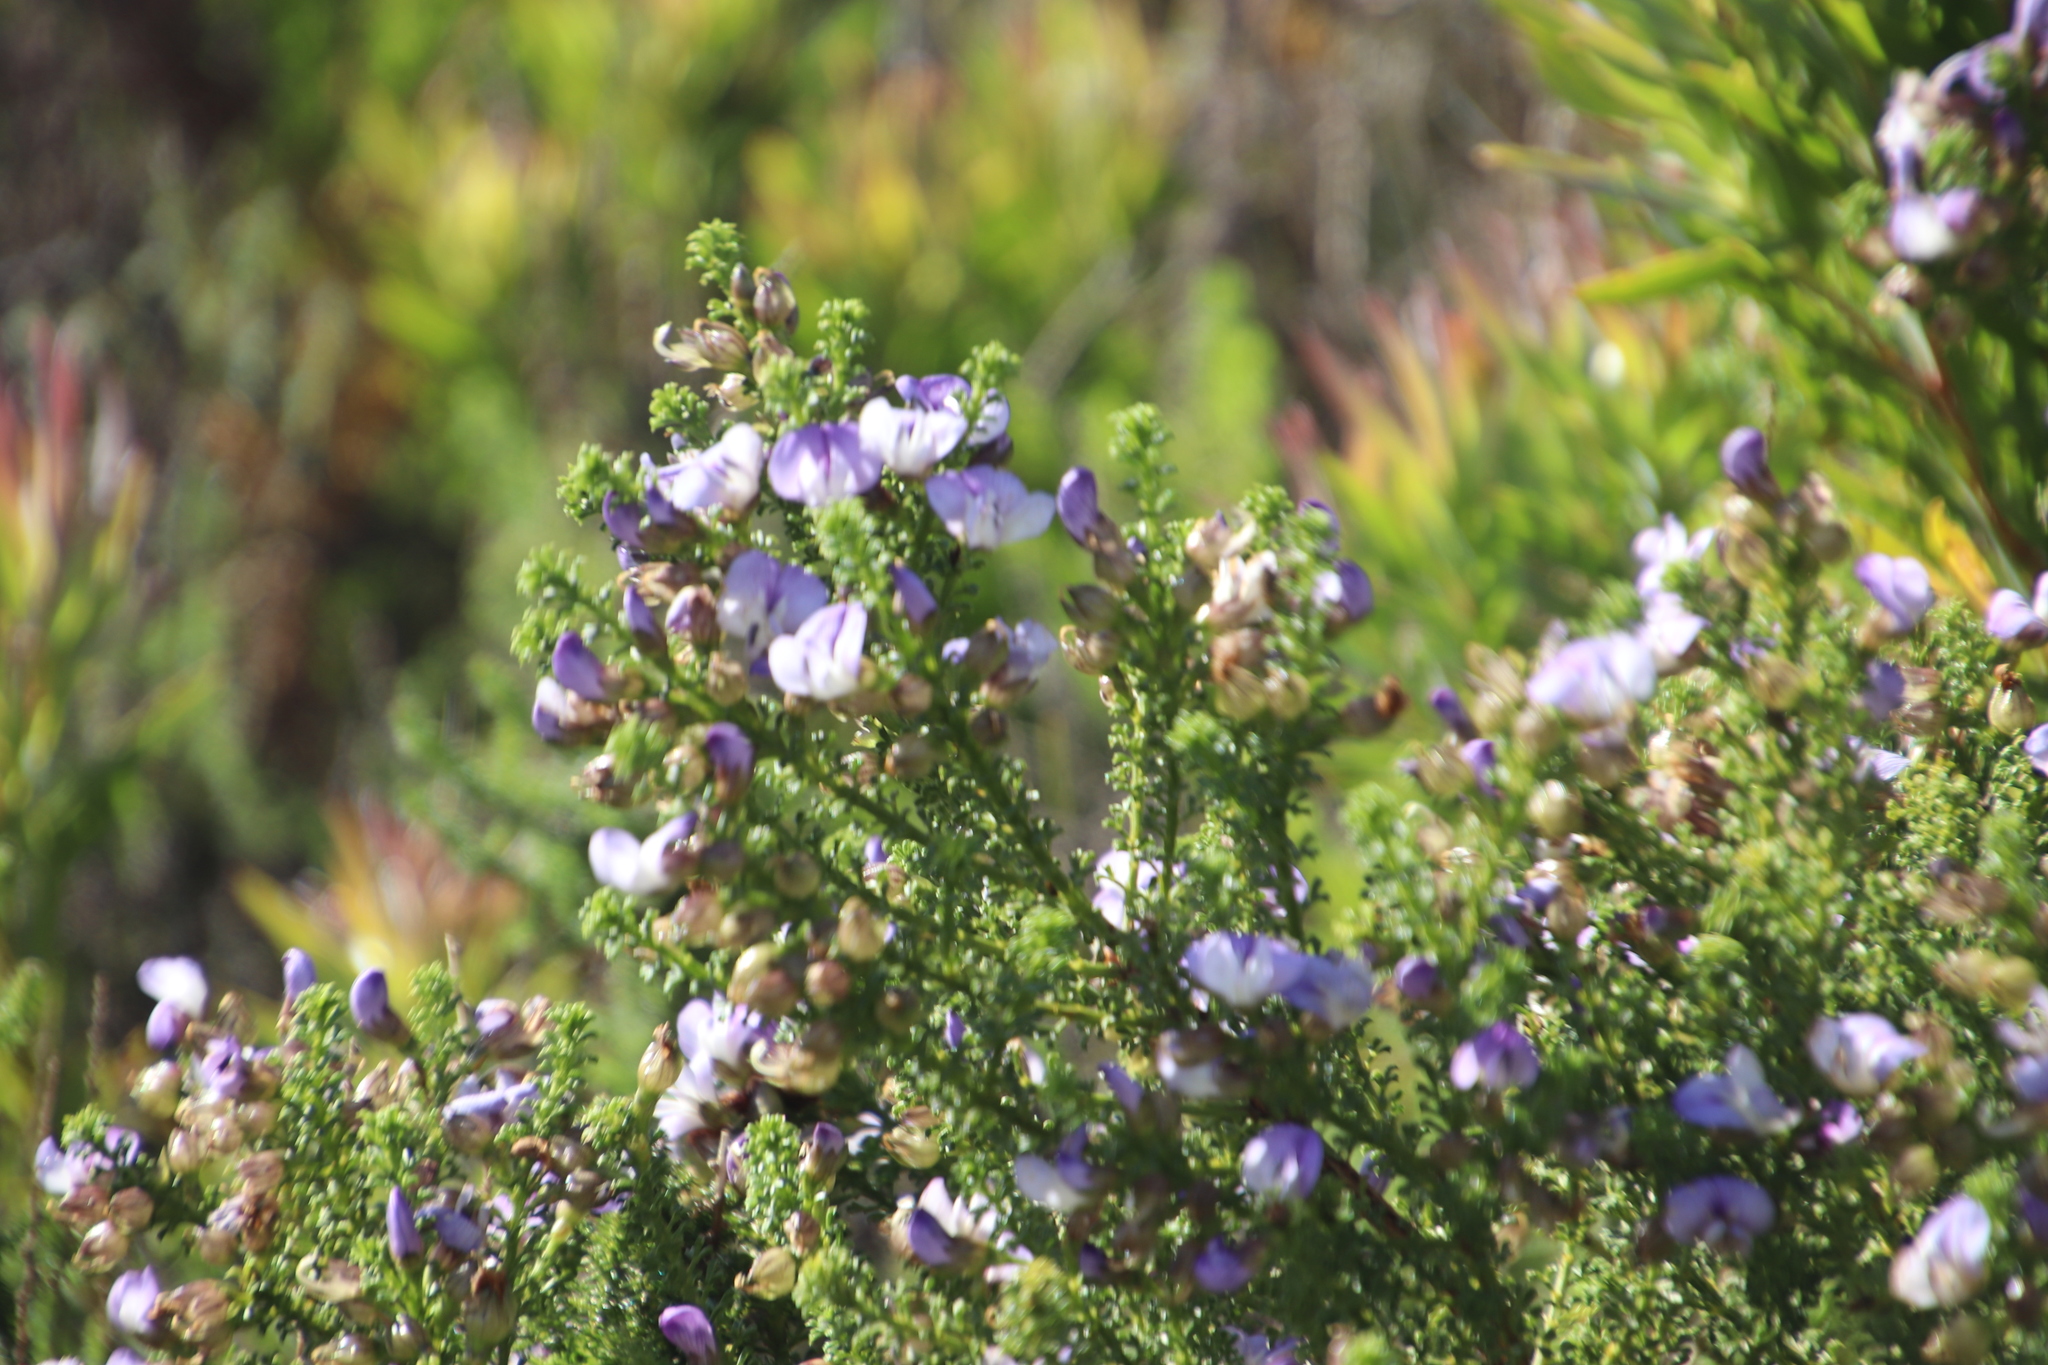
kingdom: Plantae
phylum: Tracheophyta
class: Magnoliopsida
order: Fabales
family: Fabaceae
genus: Psoralea
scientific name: Psoralea aculeata
